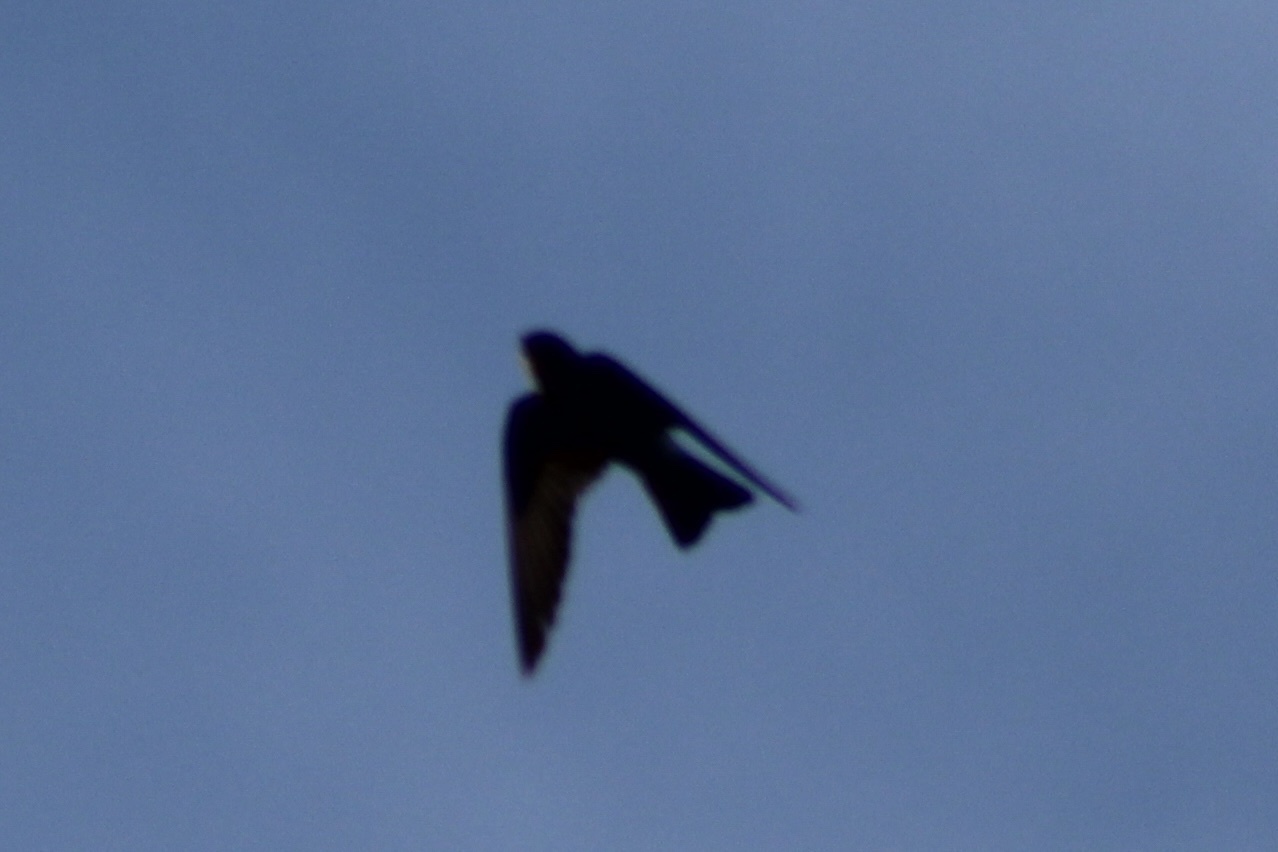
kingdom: Animalia
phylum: Chordata
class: Aves
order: Passeriformes
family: Hirundinidae
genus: Progne
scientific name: Progne subis
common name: Purple martin
